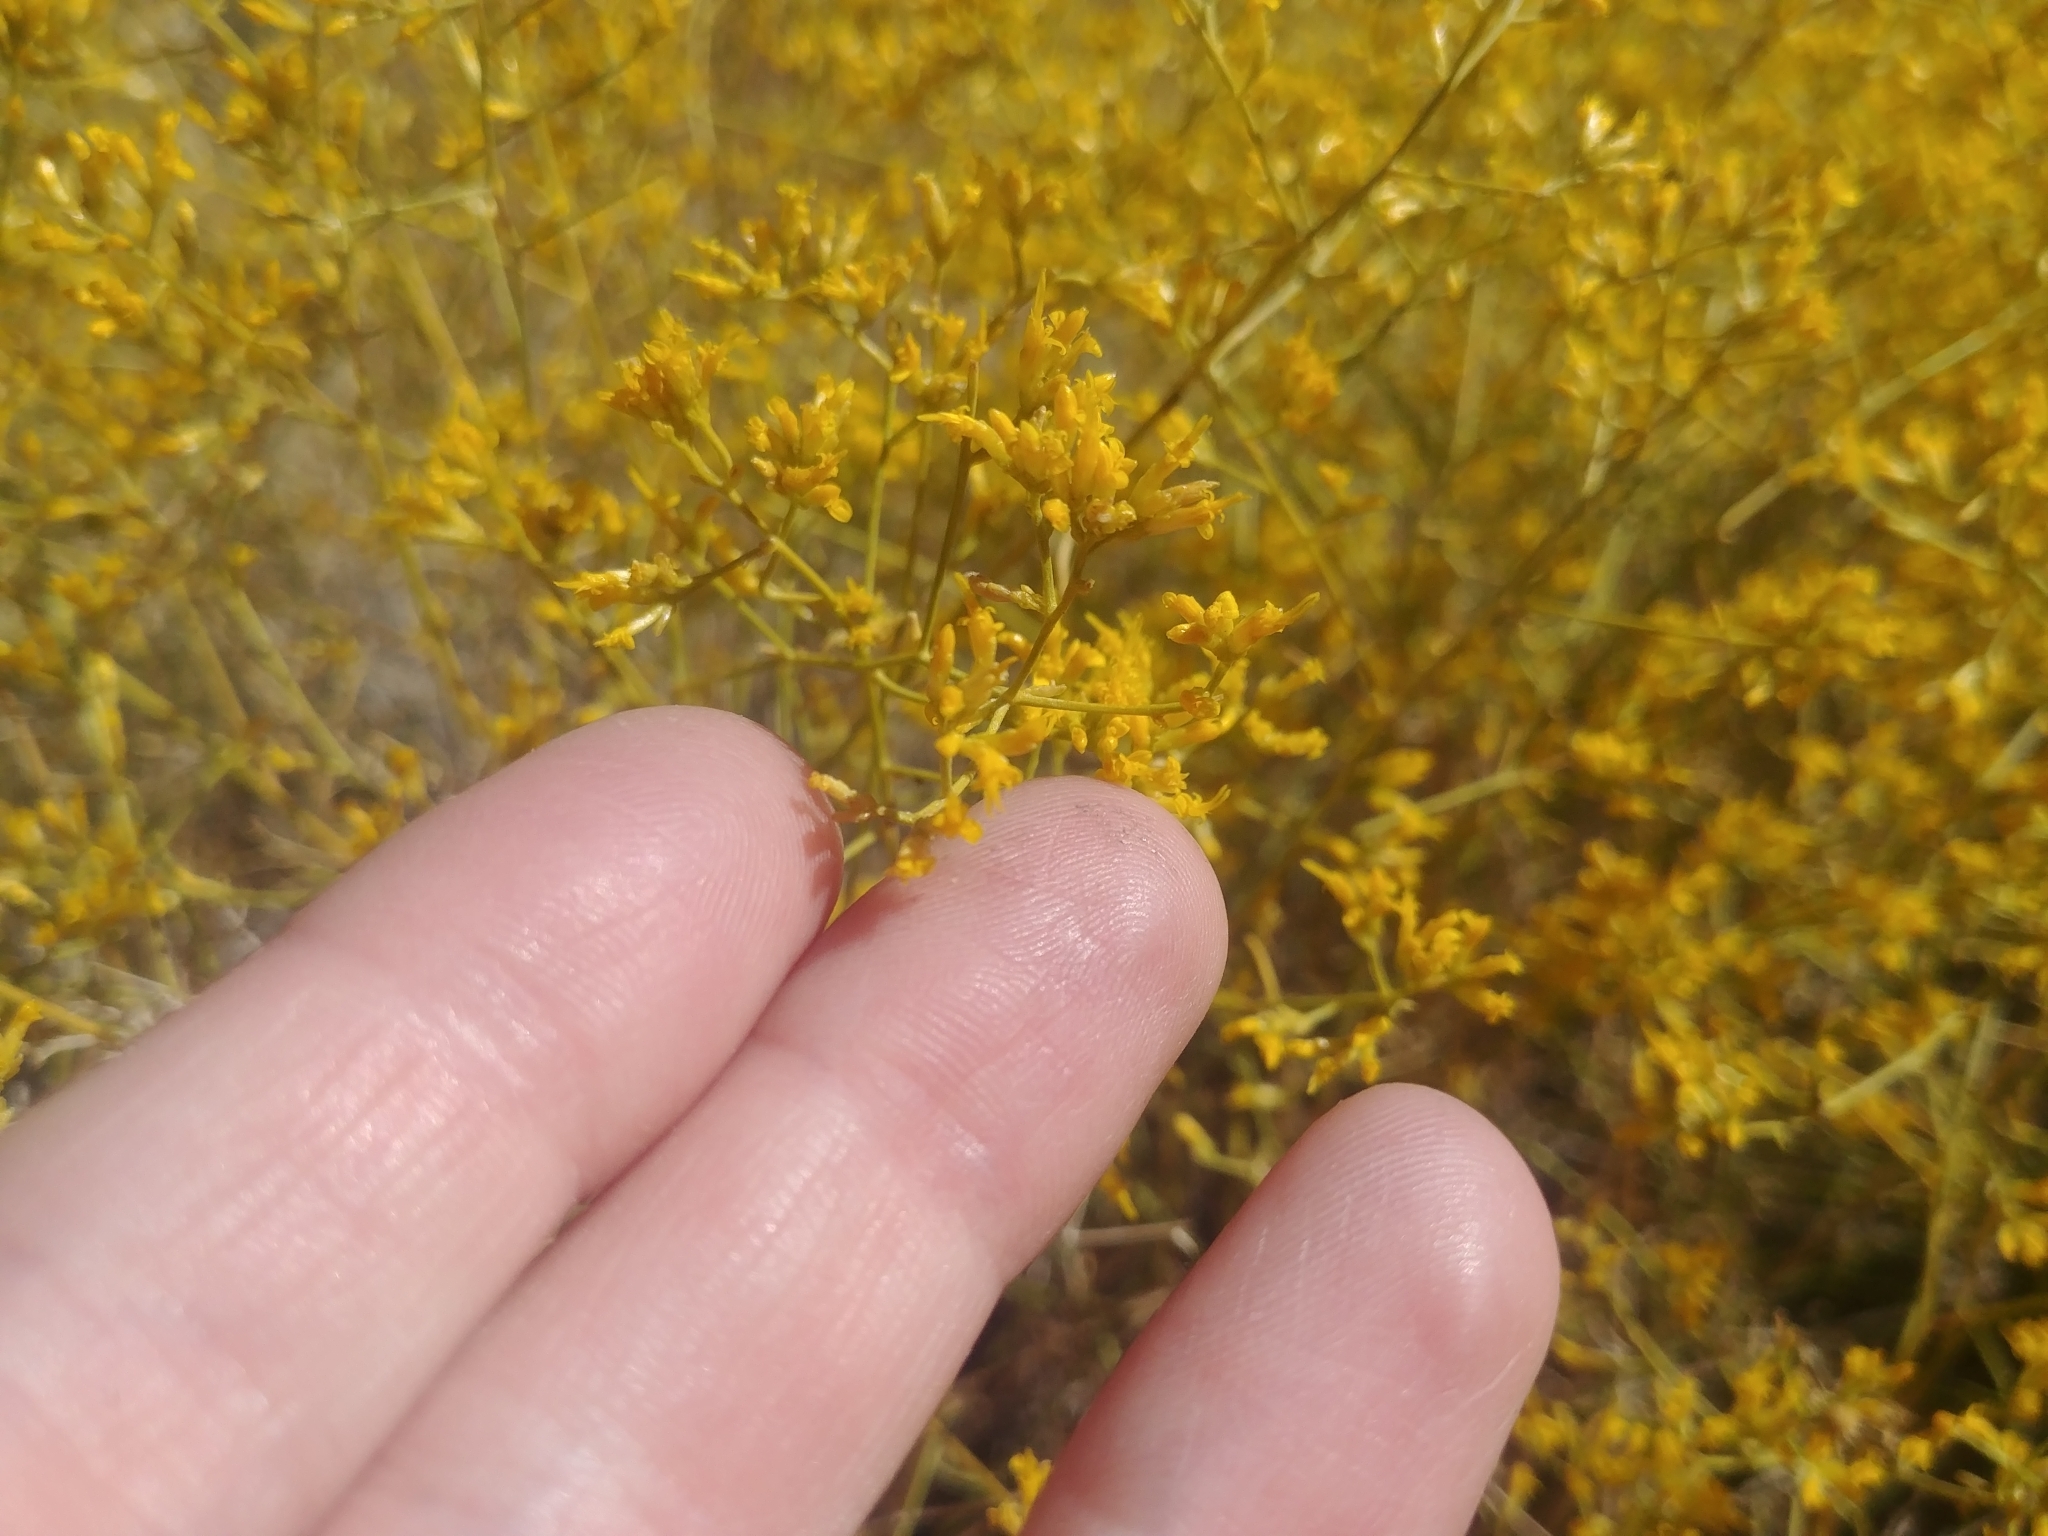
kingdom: Plantae
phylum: Tracheophyta
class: Magnoliopsida
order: Asterales
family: Asteraceae
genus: Gutierrezia
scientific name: Gutierrezia microcephala
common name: Thread snakeweed
